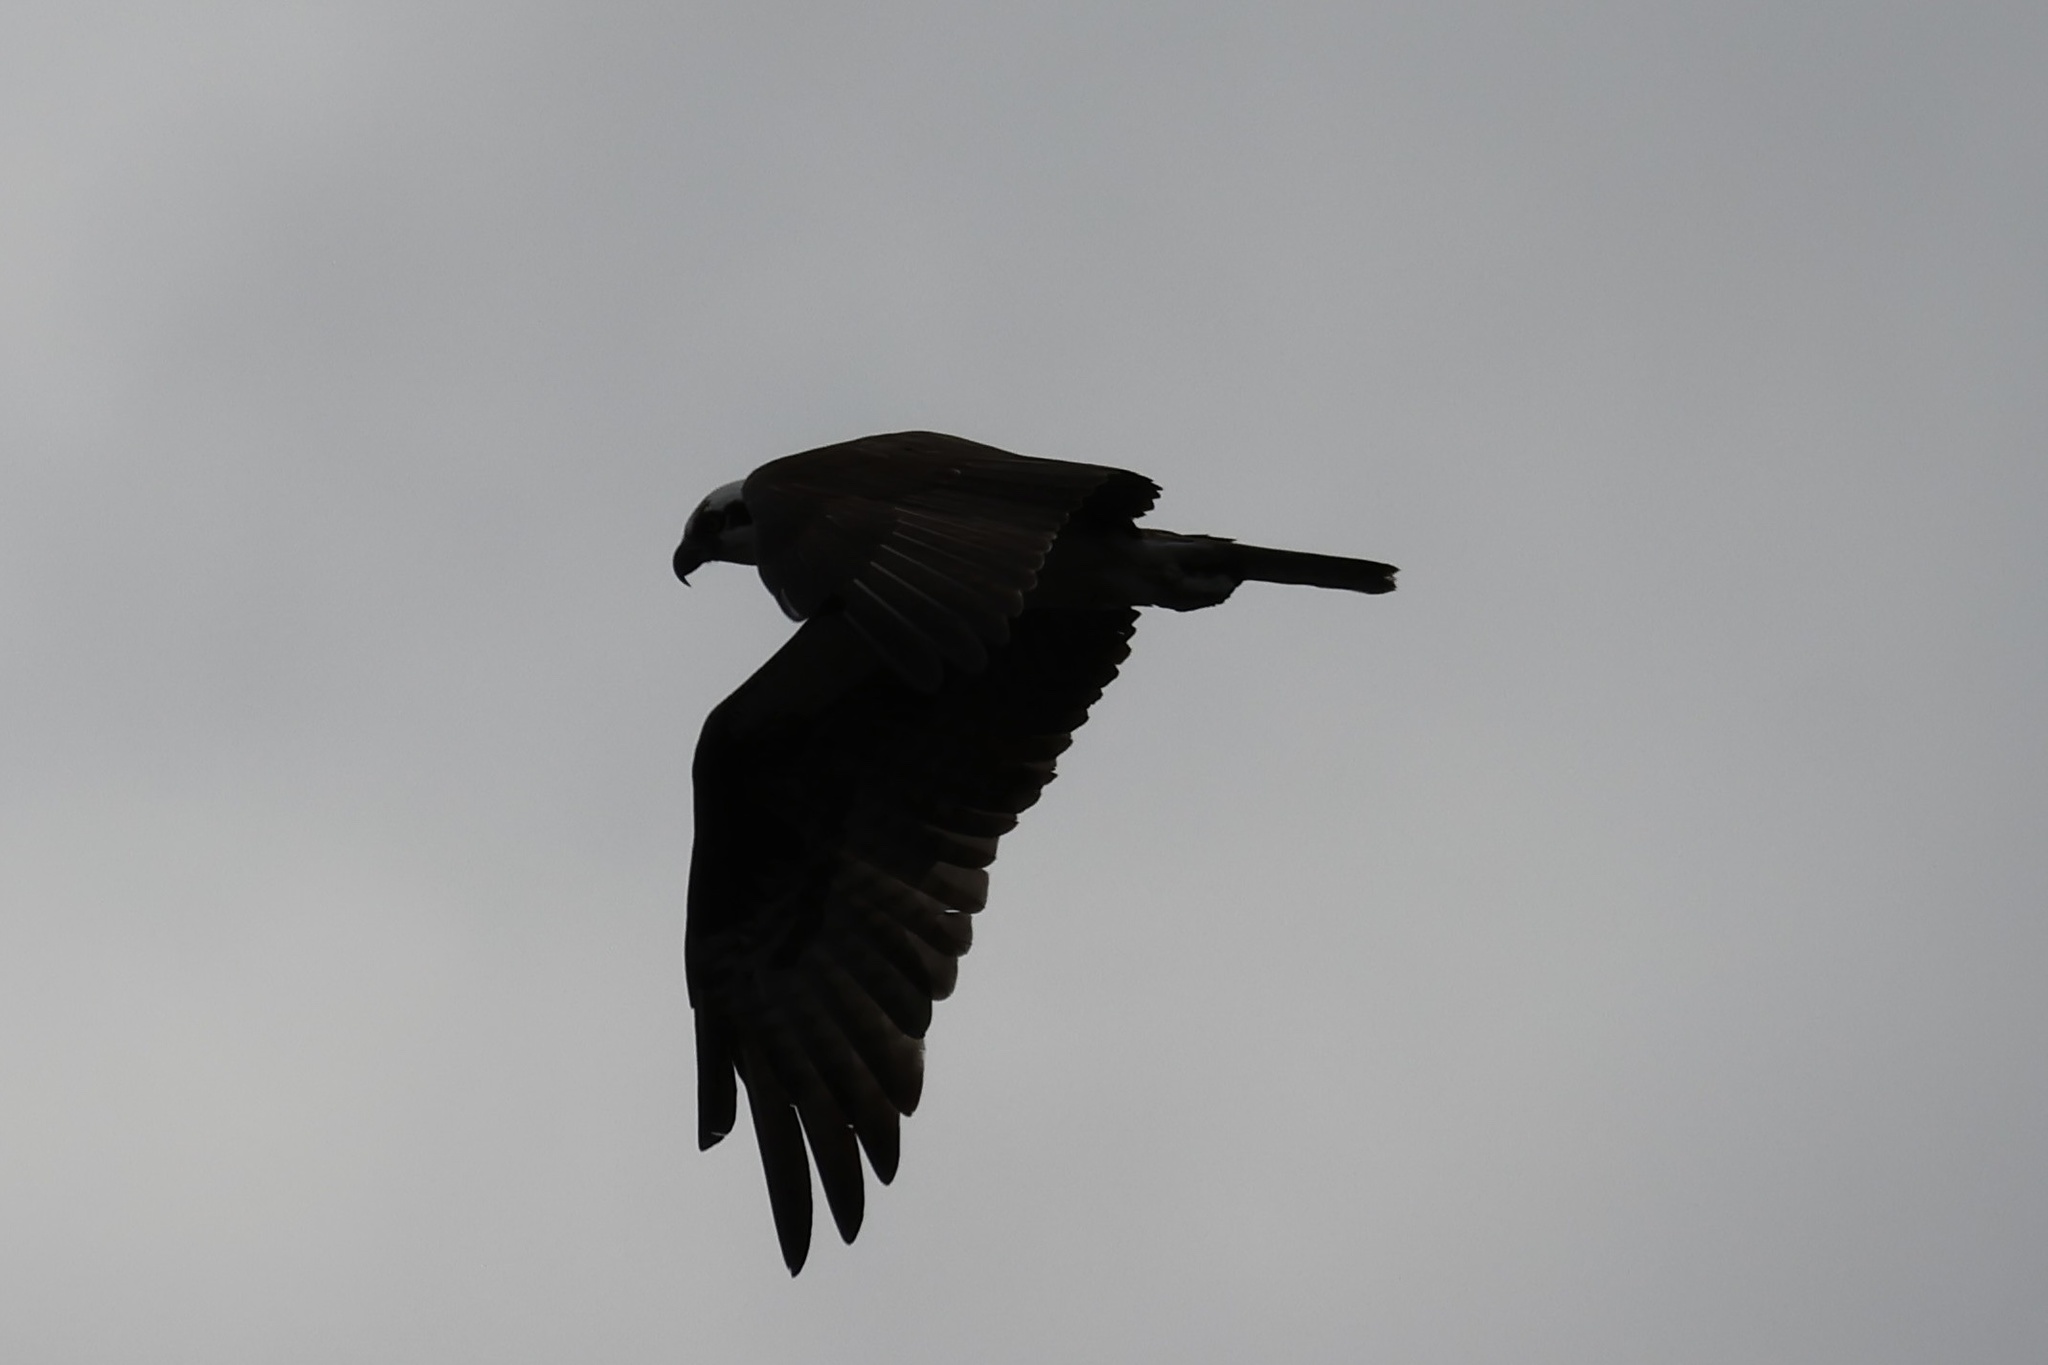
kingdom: Animalia
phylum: Chordata
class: Aves
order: Accipitriformes
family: Pandionidae
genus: Pandion
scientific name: Pandion haliaetus
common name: Osprey
